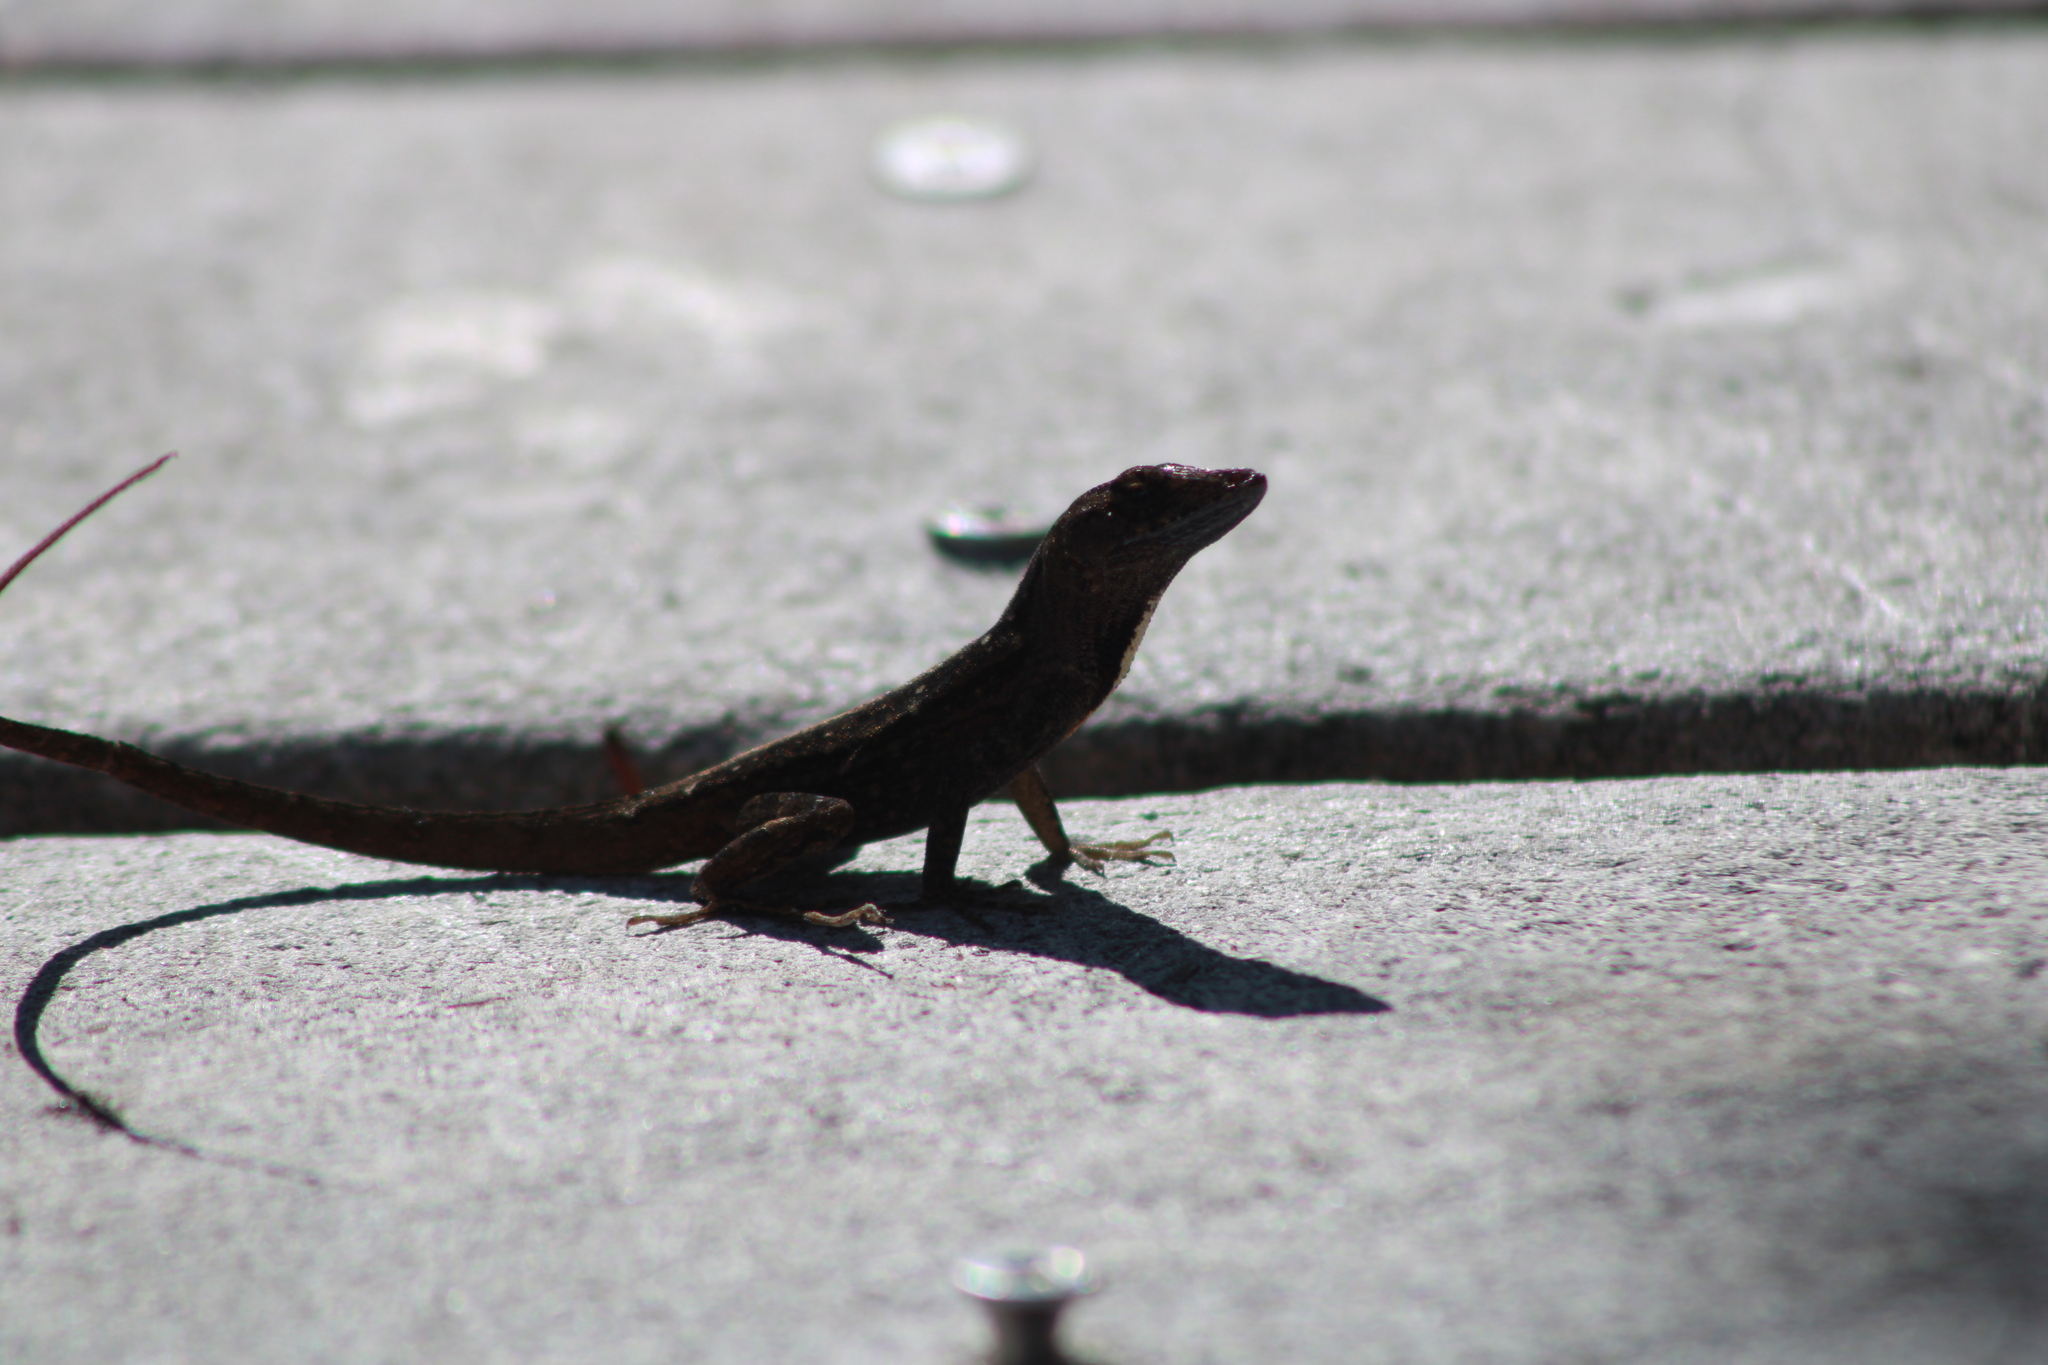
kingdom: Animalia
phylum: Chordata
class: Squamata
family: Dactyloidae
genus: Anolis
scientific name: Anolis sagrei
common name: Brown anole
